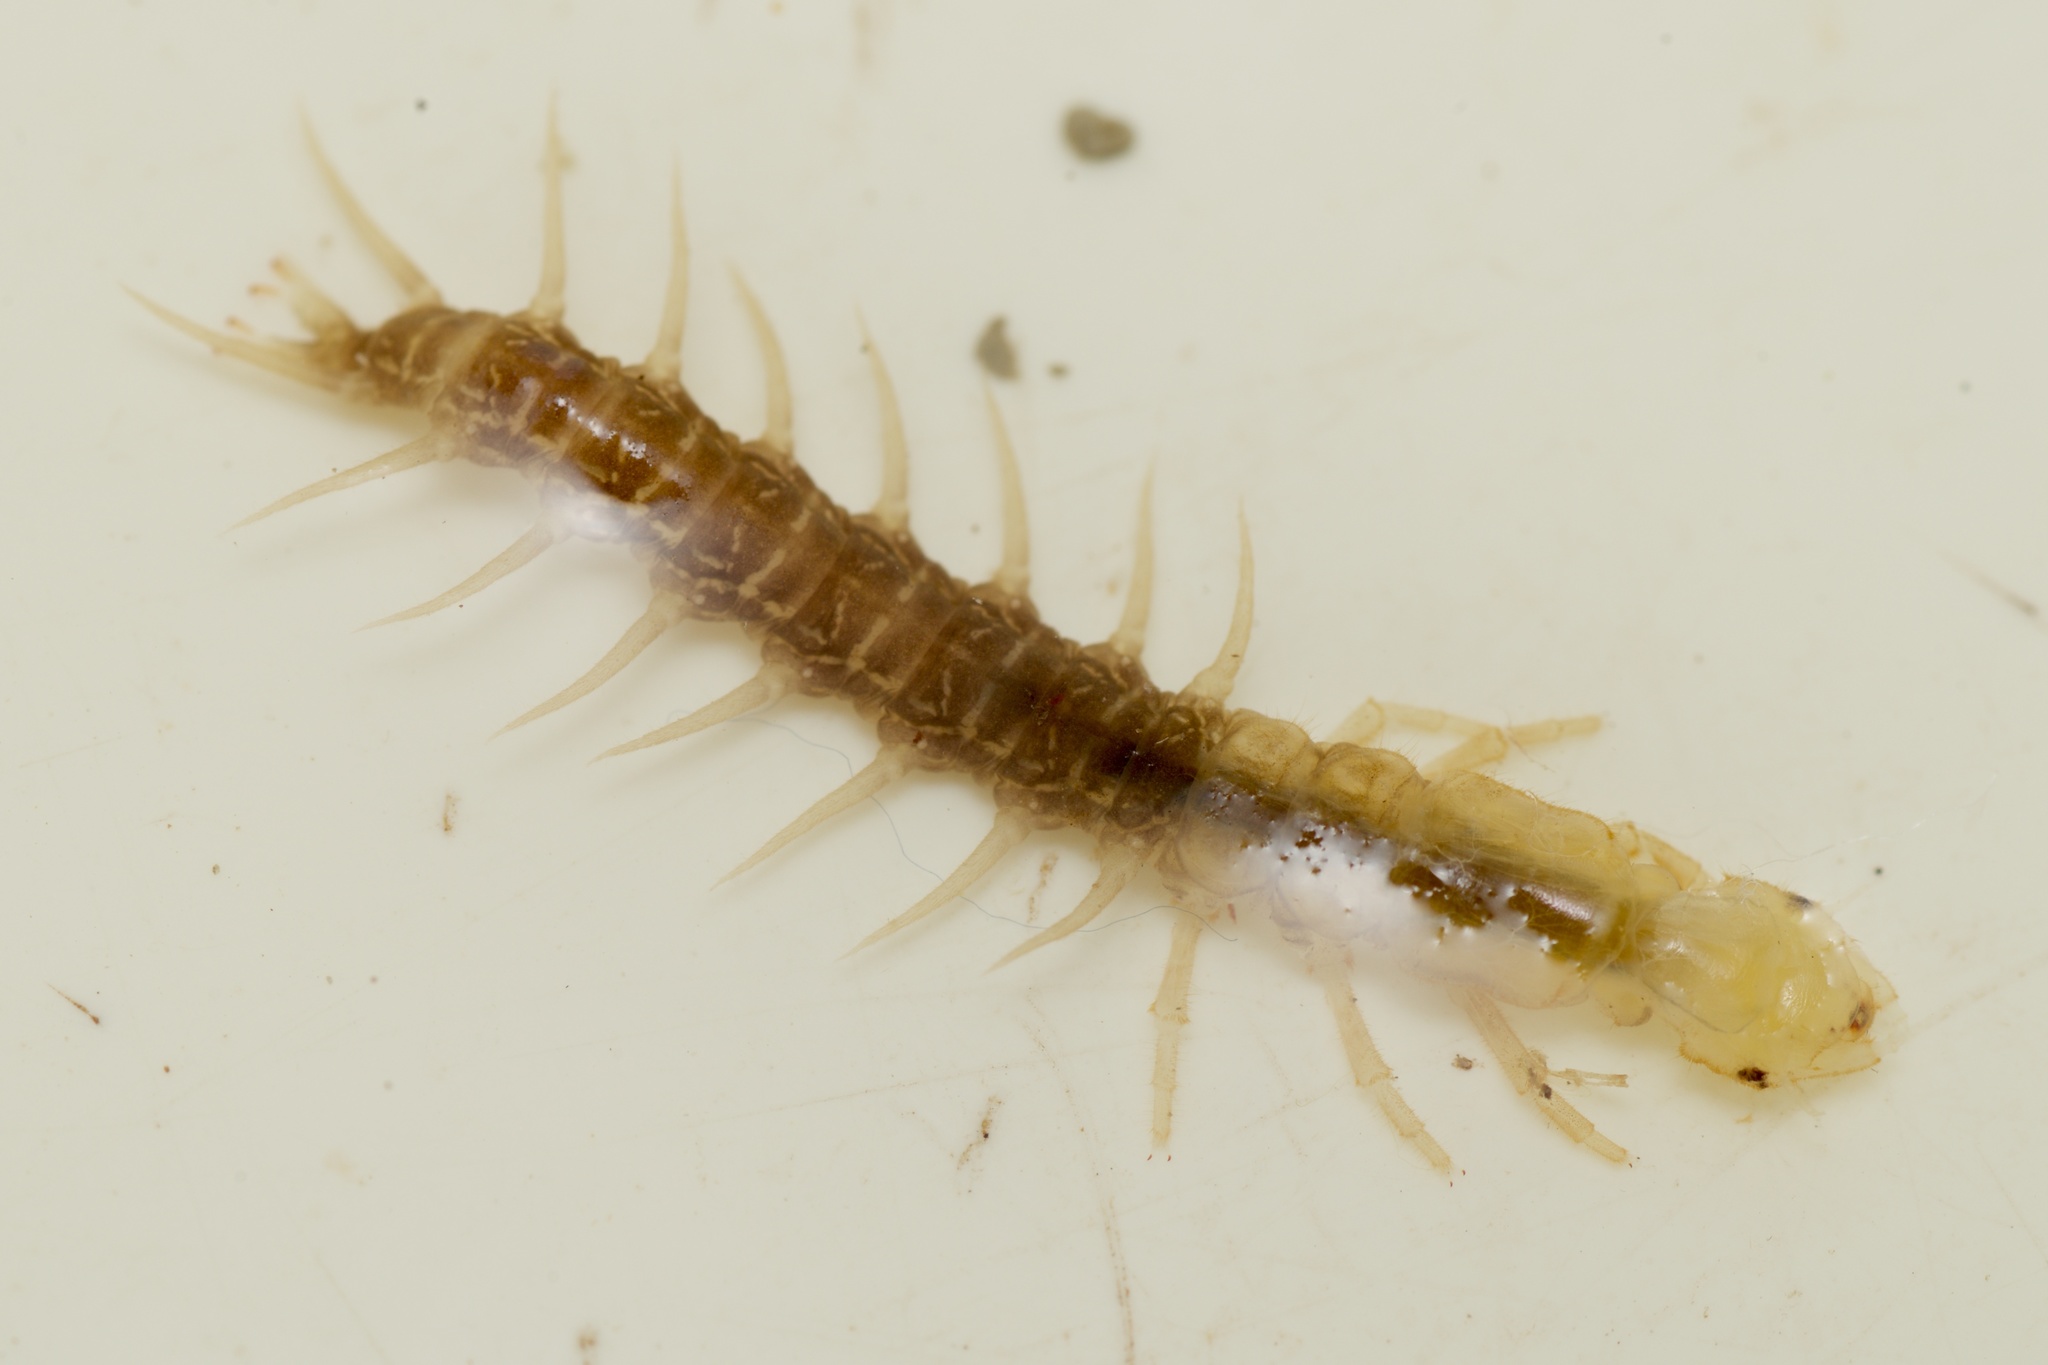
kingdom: Animalia
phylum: Arthropoda
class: Insecta
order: Megaloptera
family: Corydalidae
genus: Archichauliodes
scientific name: Archichauliodes diversus
